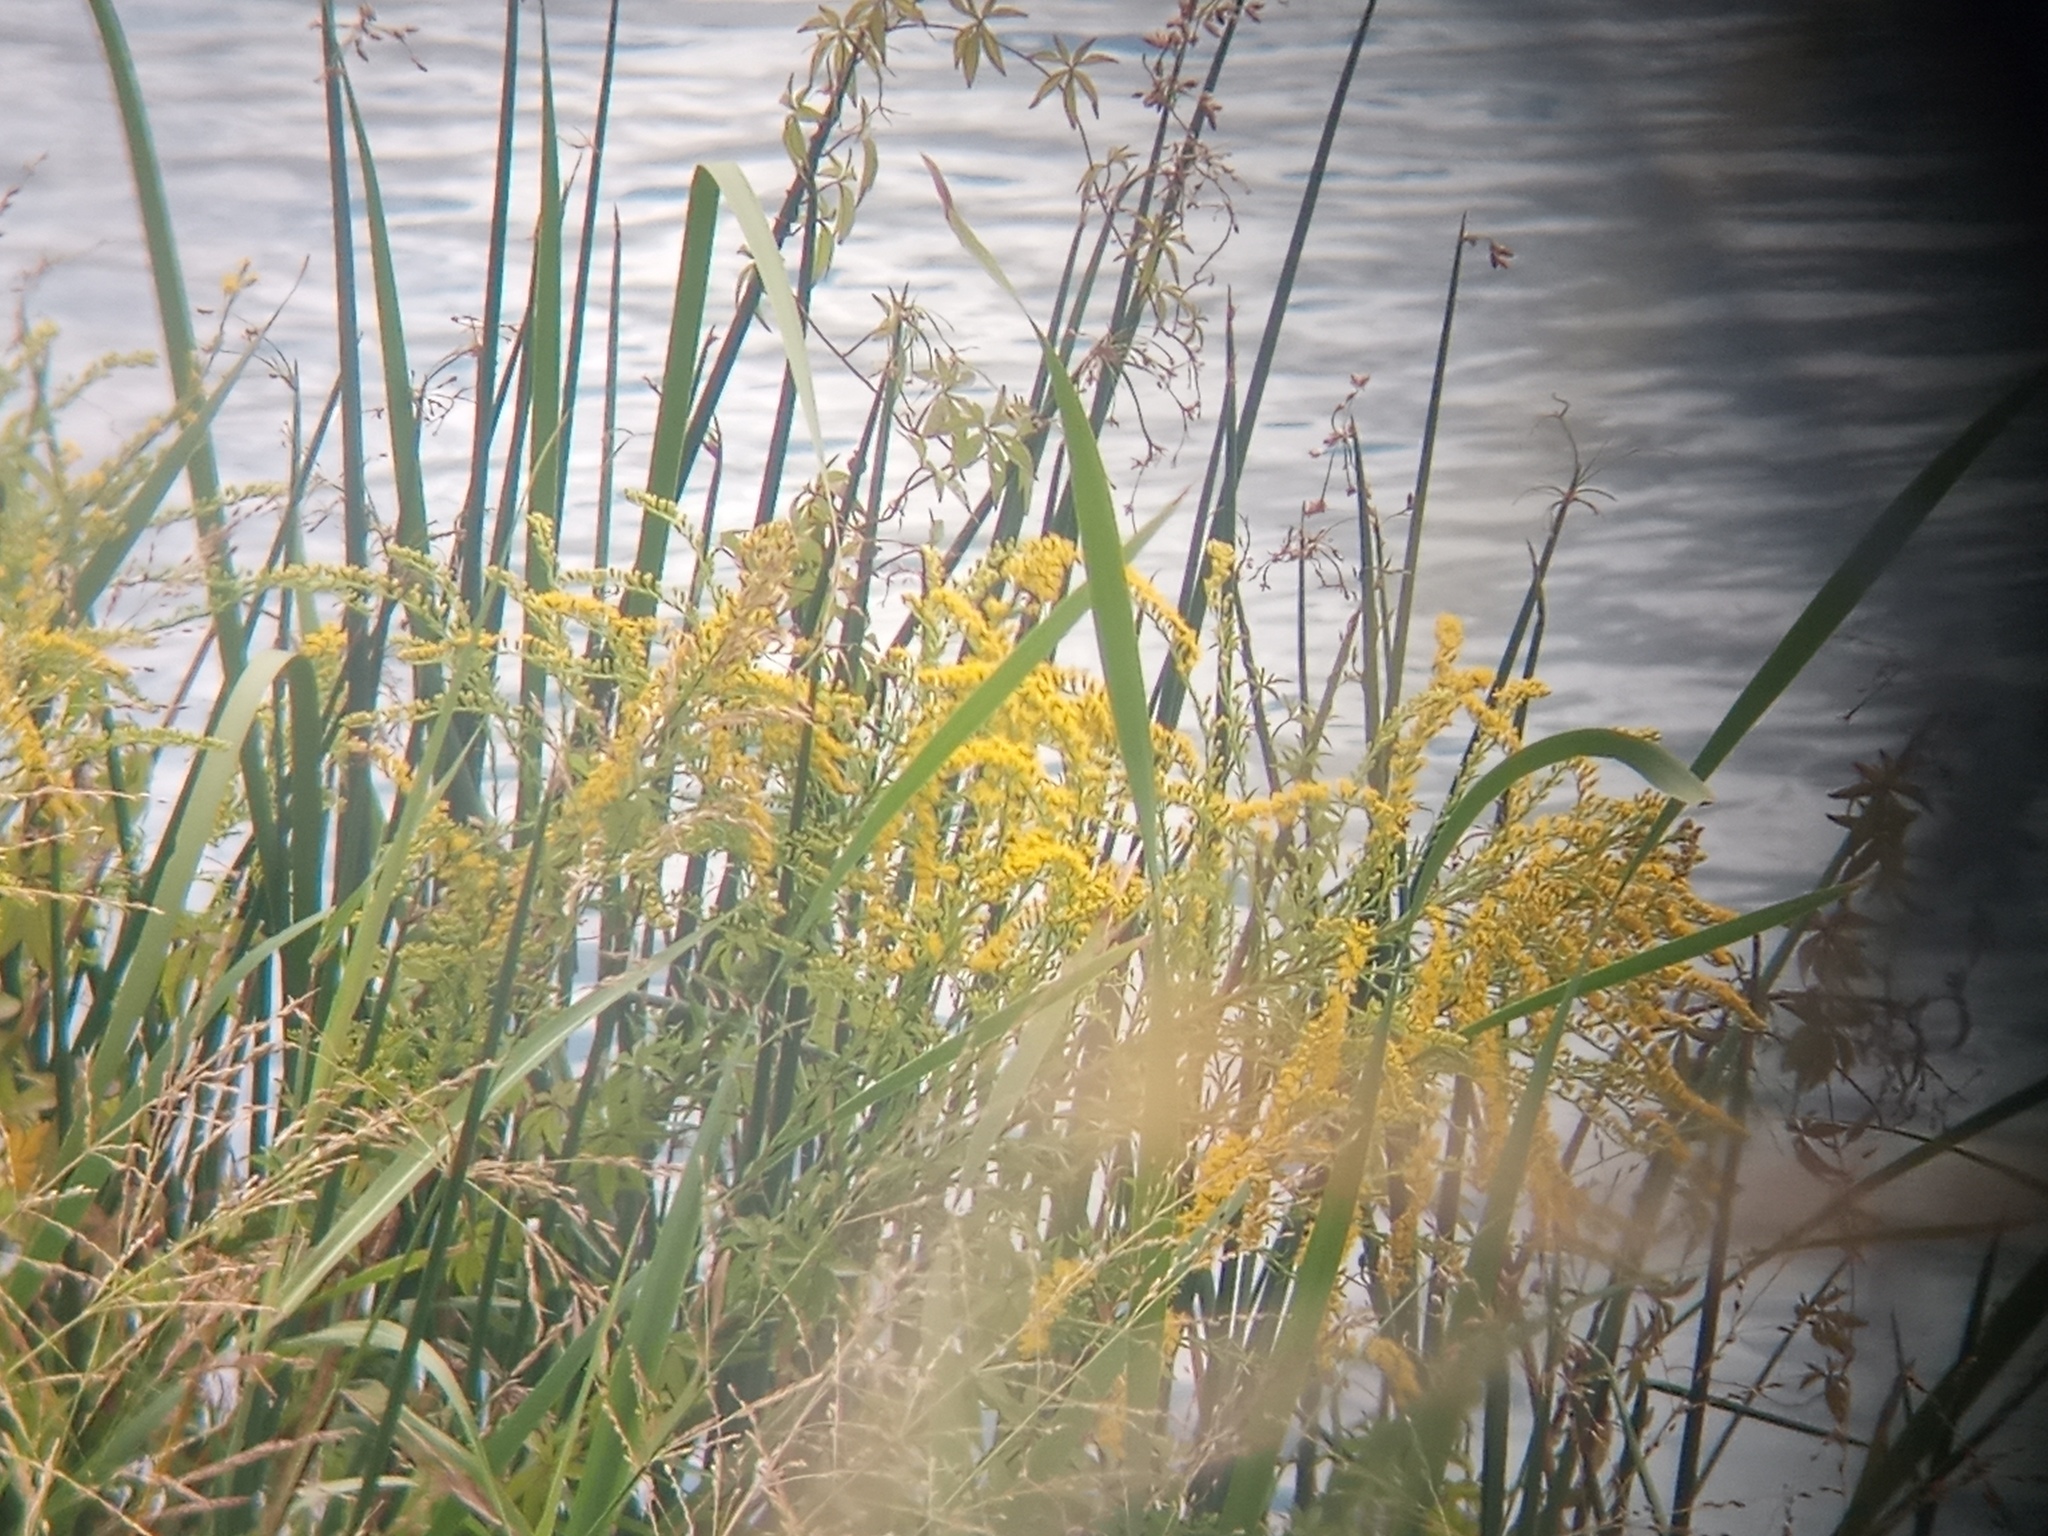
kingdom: Plantae
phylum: Tracheophyta
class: Magnoliopsida
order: Asterales
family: Asteraceae
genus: Solidago
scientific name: Solidago chilensis
